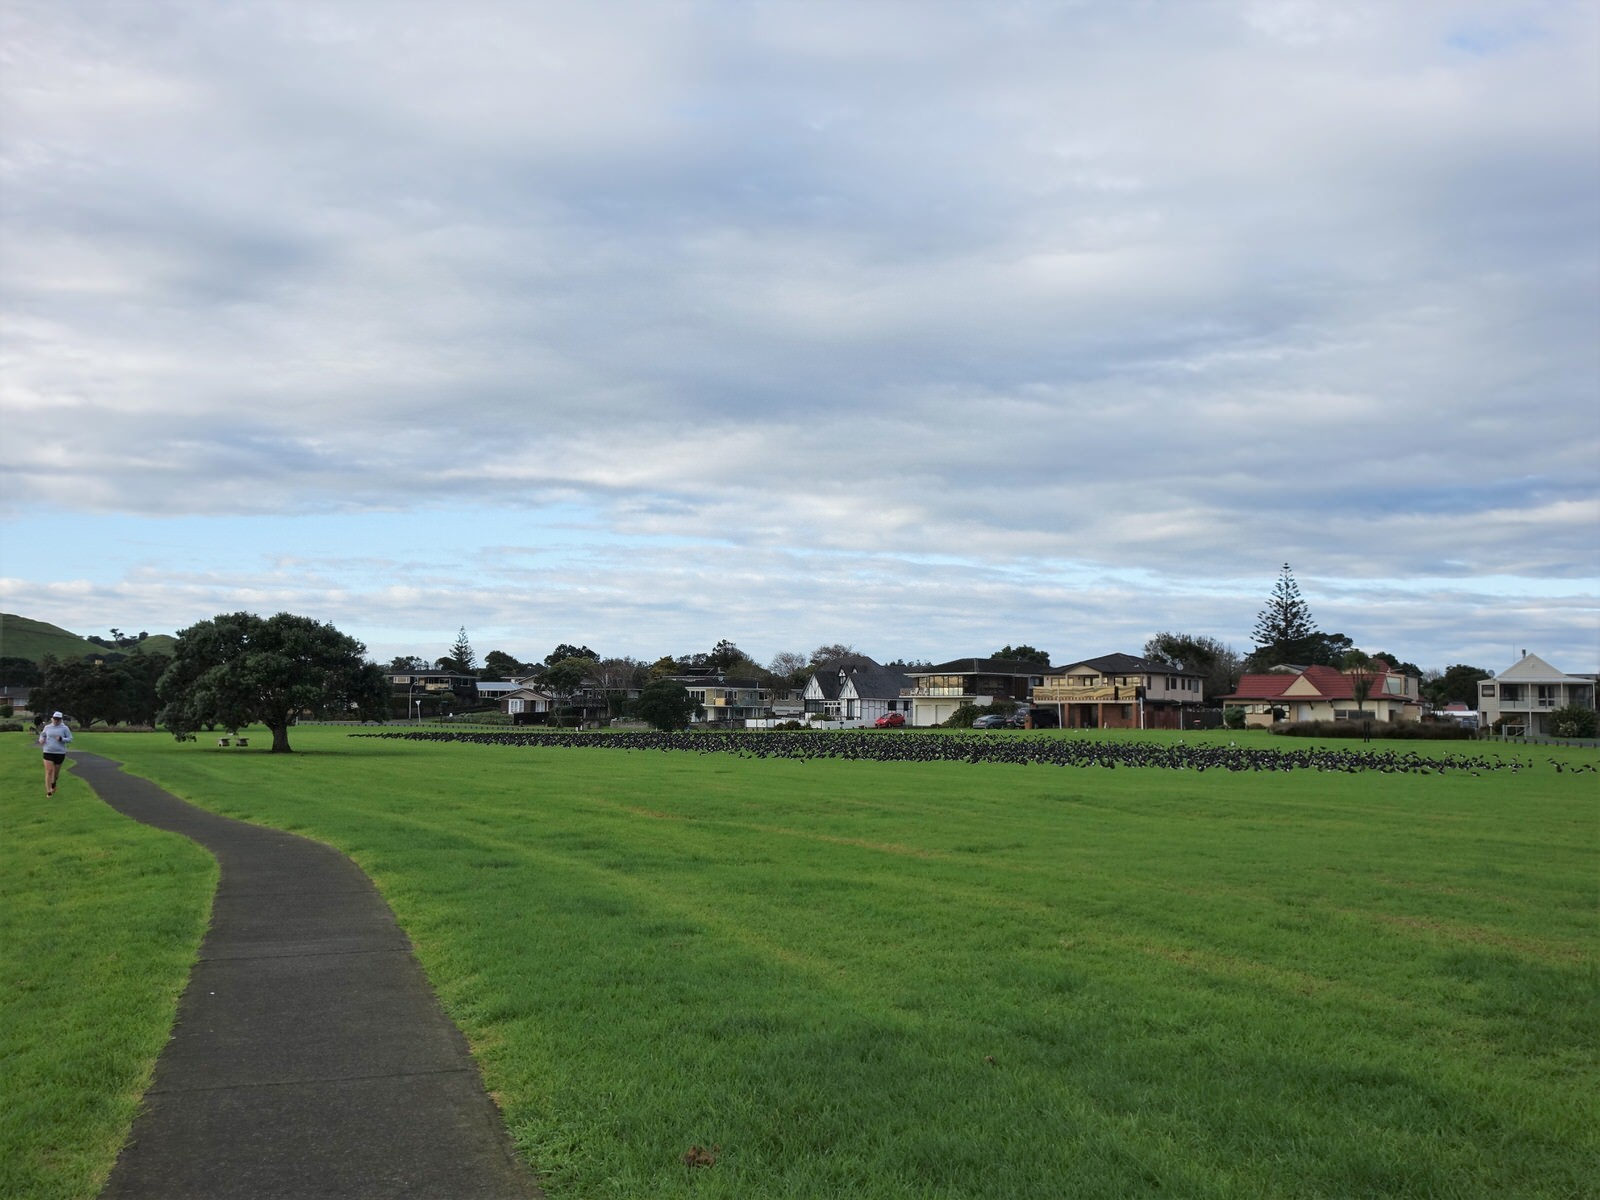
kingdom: Animalia
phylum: Chordata
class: Aves
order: Charadriiformes
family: Haematopodidae
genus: Haematopus
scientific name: Haematopus finschi
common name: South island oystercatcher
